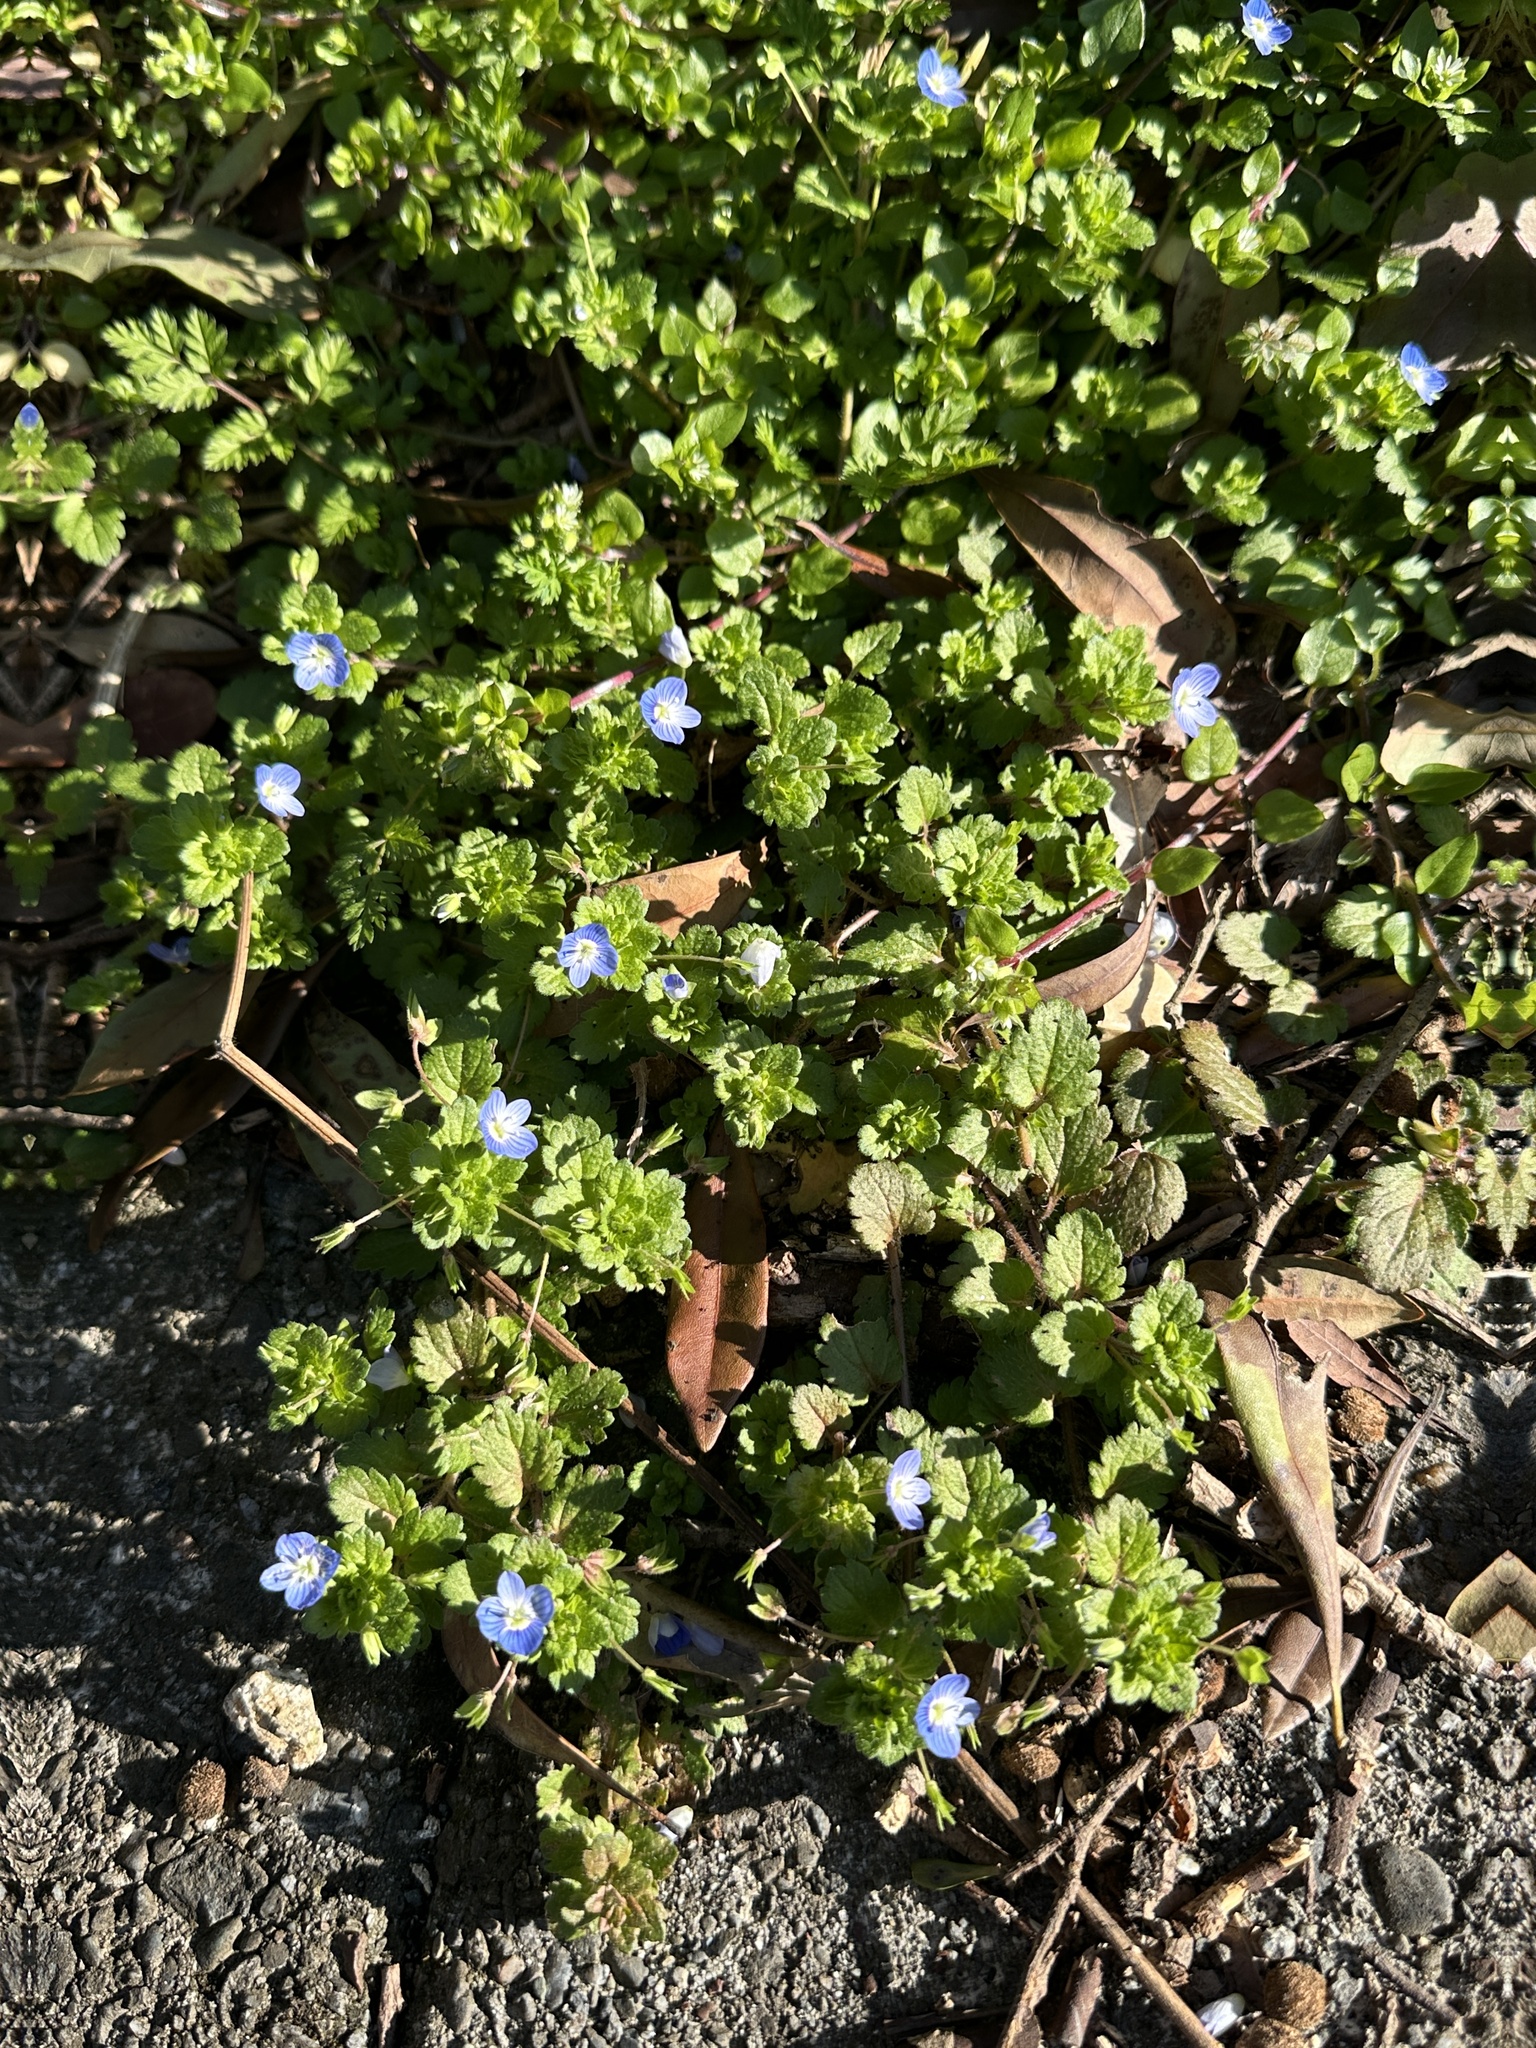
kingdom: Plantae
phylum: Tracheophyta
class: Magnoliopsida
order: Lamiales
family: Plantaginaceae
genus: Veronica
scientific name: Veronica persica
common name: Common field-speedwell
